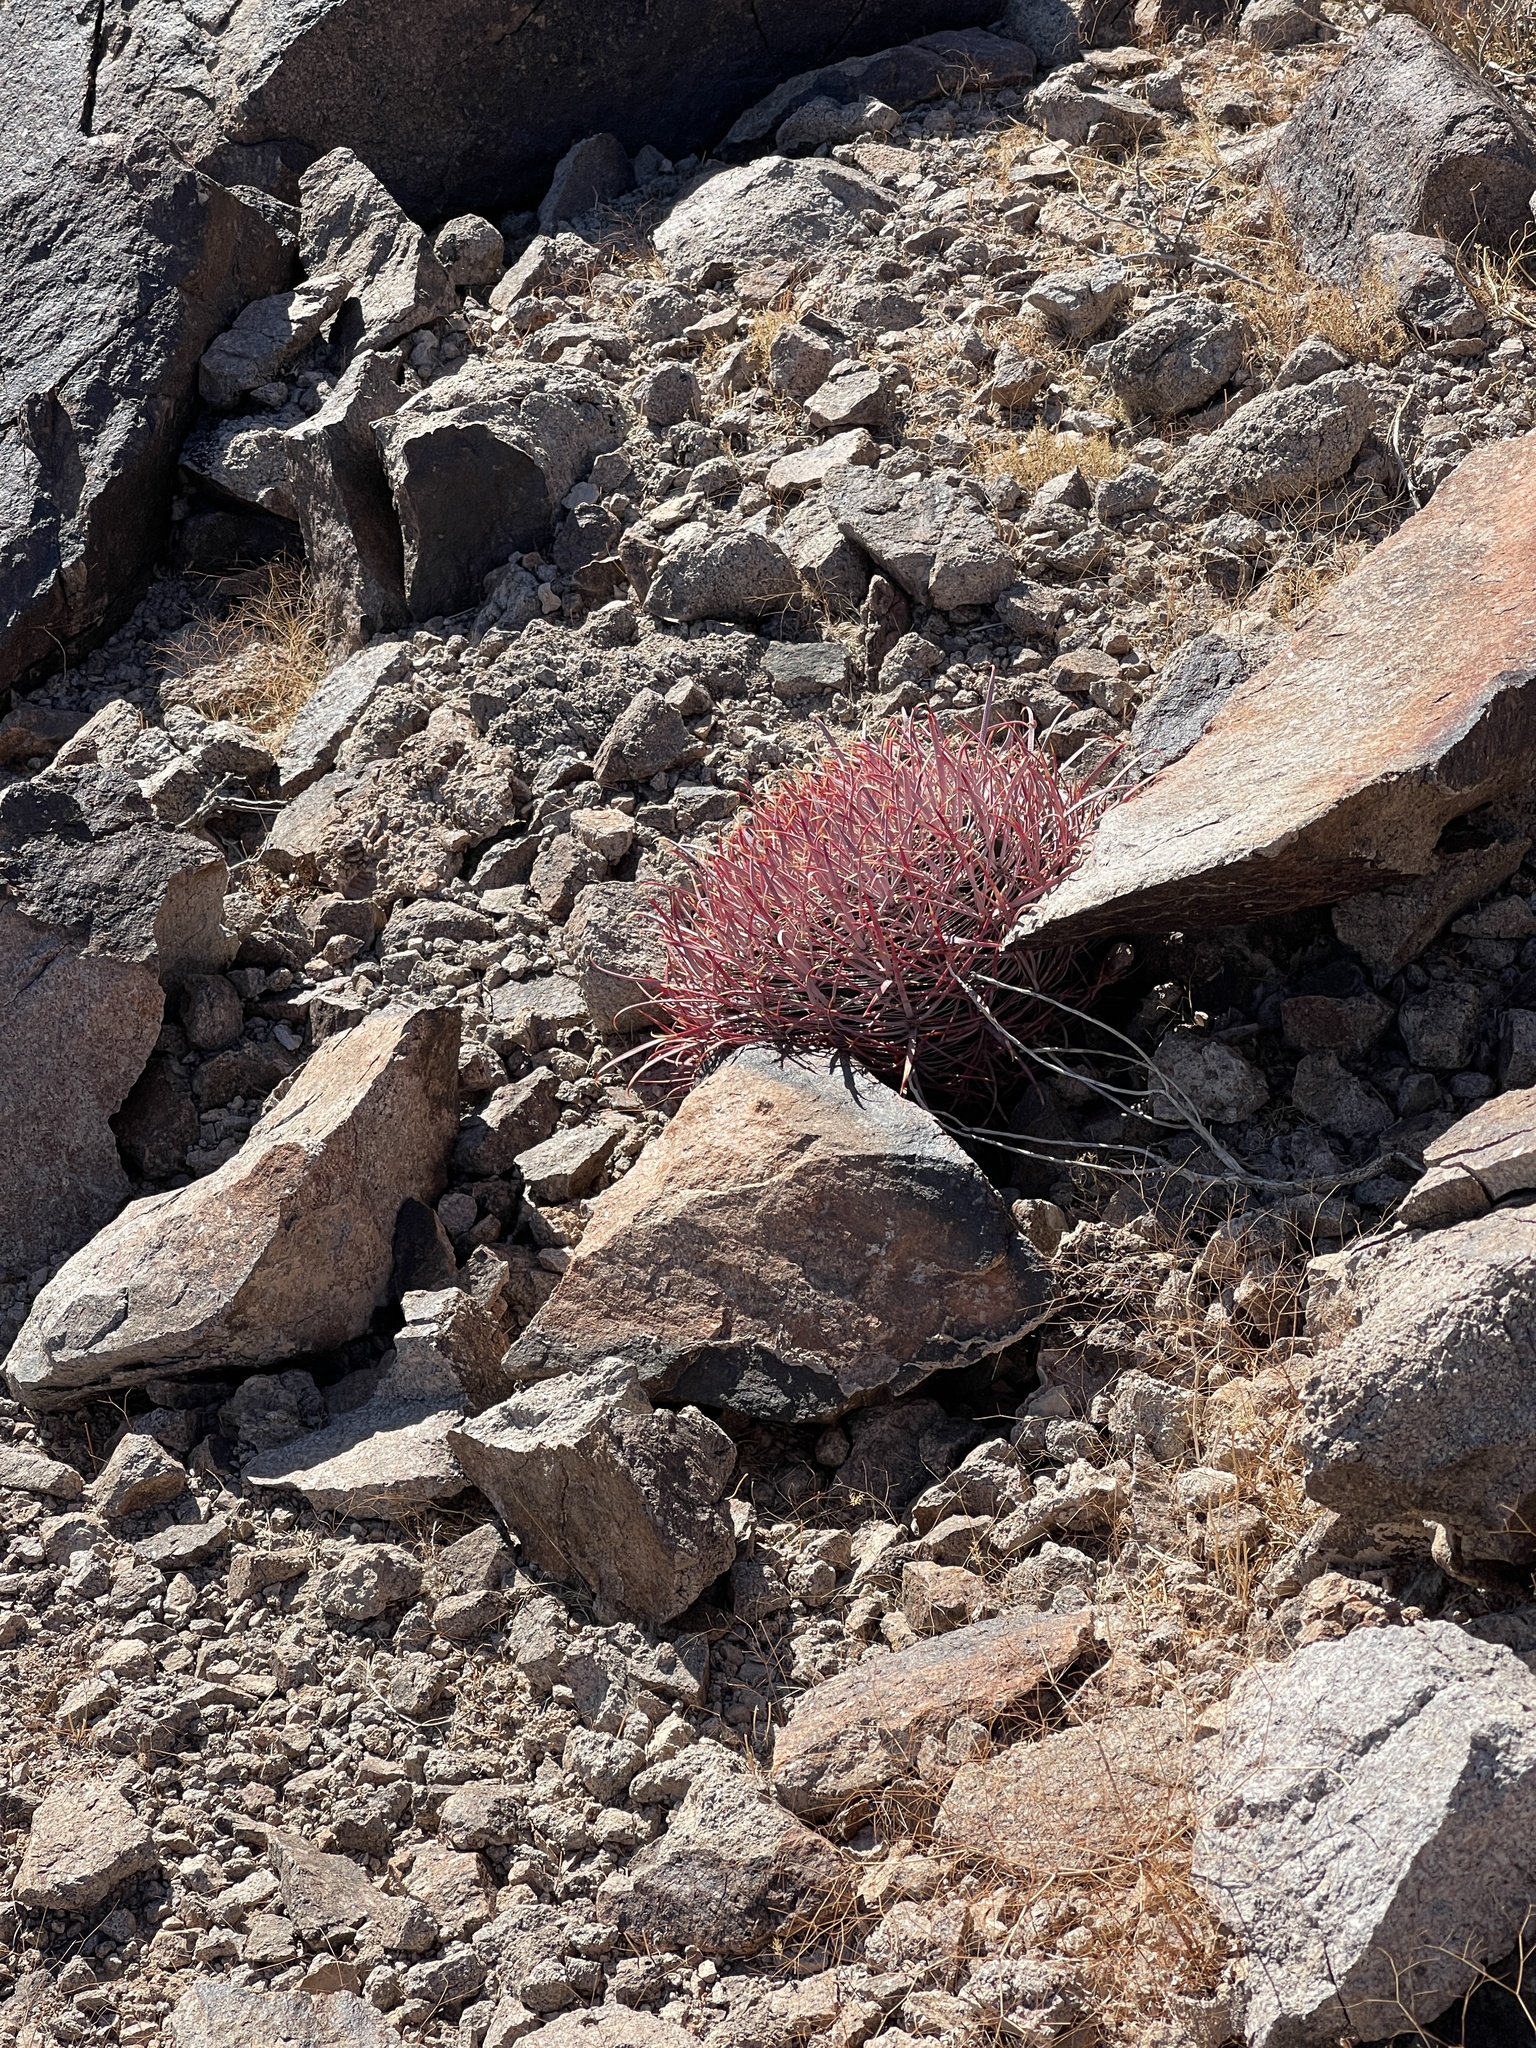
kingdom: Plantae
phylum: Tracheophyta
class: Magnoliopsida
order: Caryophyllales
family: Cactaceae
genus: Ferocactus
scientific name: Ferocactus cylindraceus
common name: California barrel cactus
